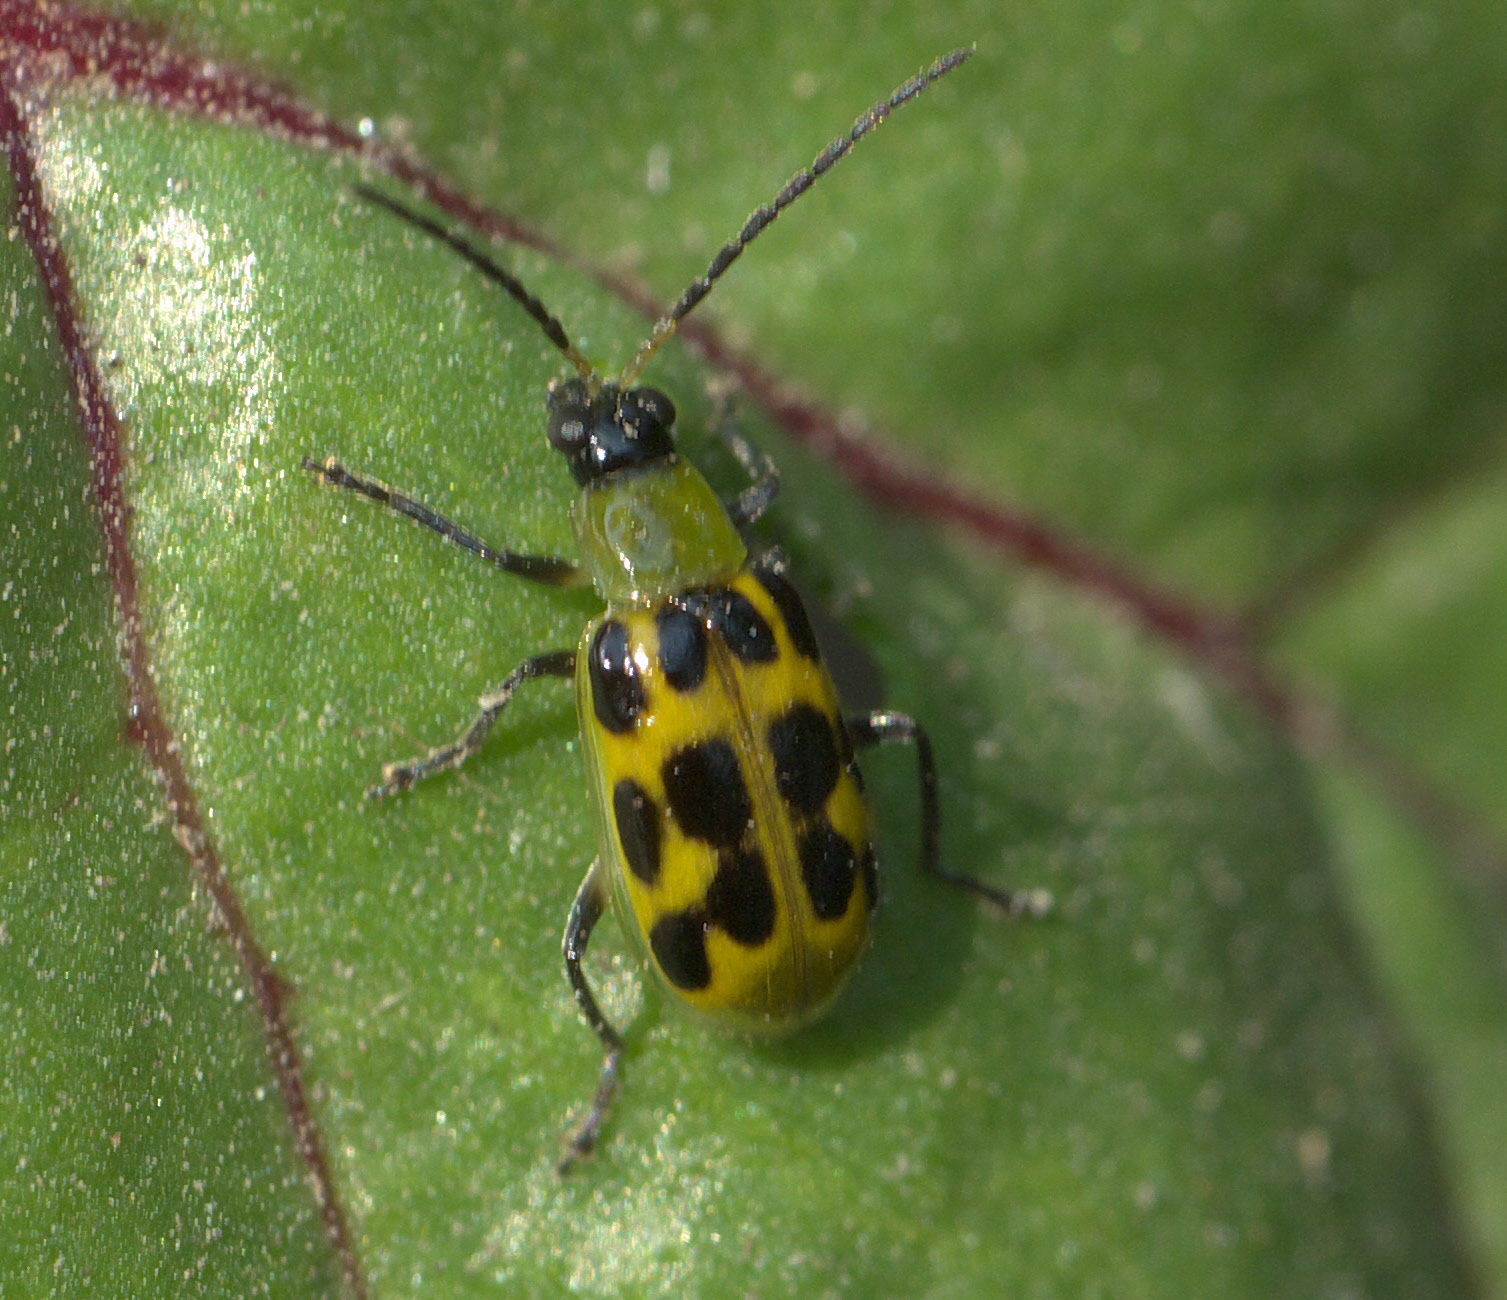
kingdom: Animalia
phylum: Arthropoda
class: Insecta
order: Coleoptera
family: Chrysomelidae
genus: Diabrotica
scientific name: Diabrotica undecimpunctata
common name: Spotted cucumber beetle
